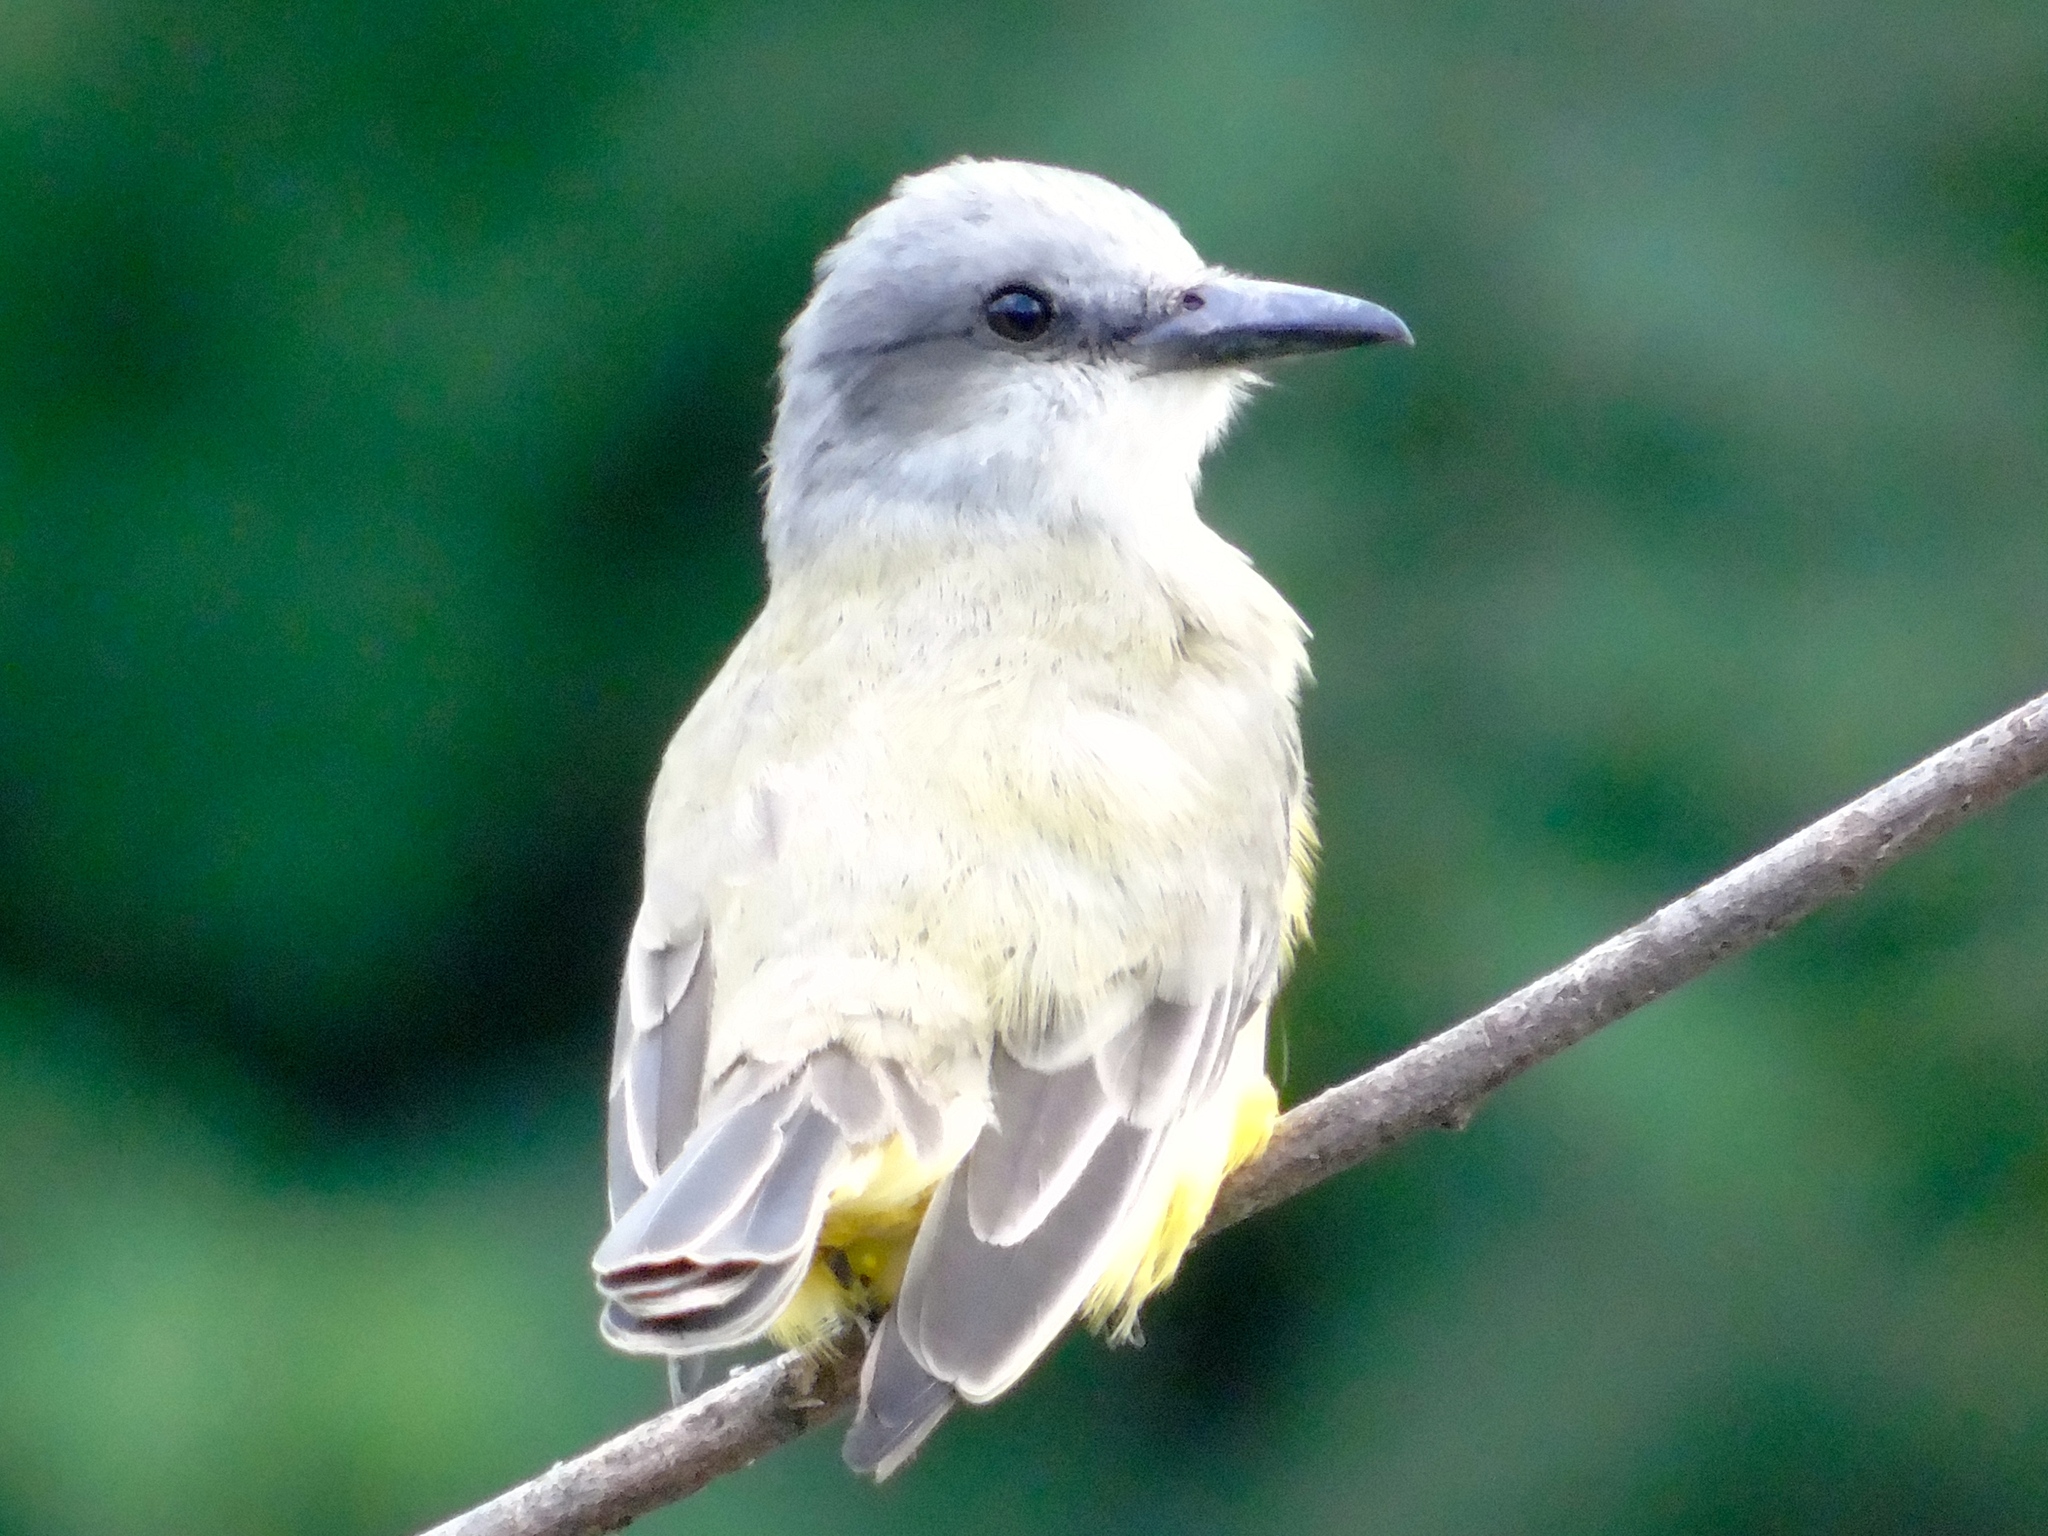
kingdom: Animalia
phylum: Chordata
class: Aves
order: Passeriformes
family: Tyrannidae
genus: Tyrannus
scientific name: Tyrannus melancholicus
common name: Tropical kingbird
